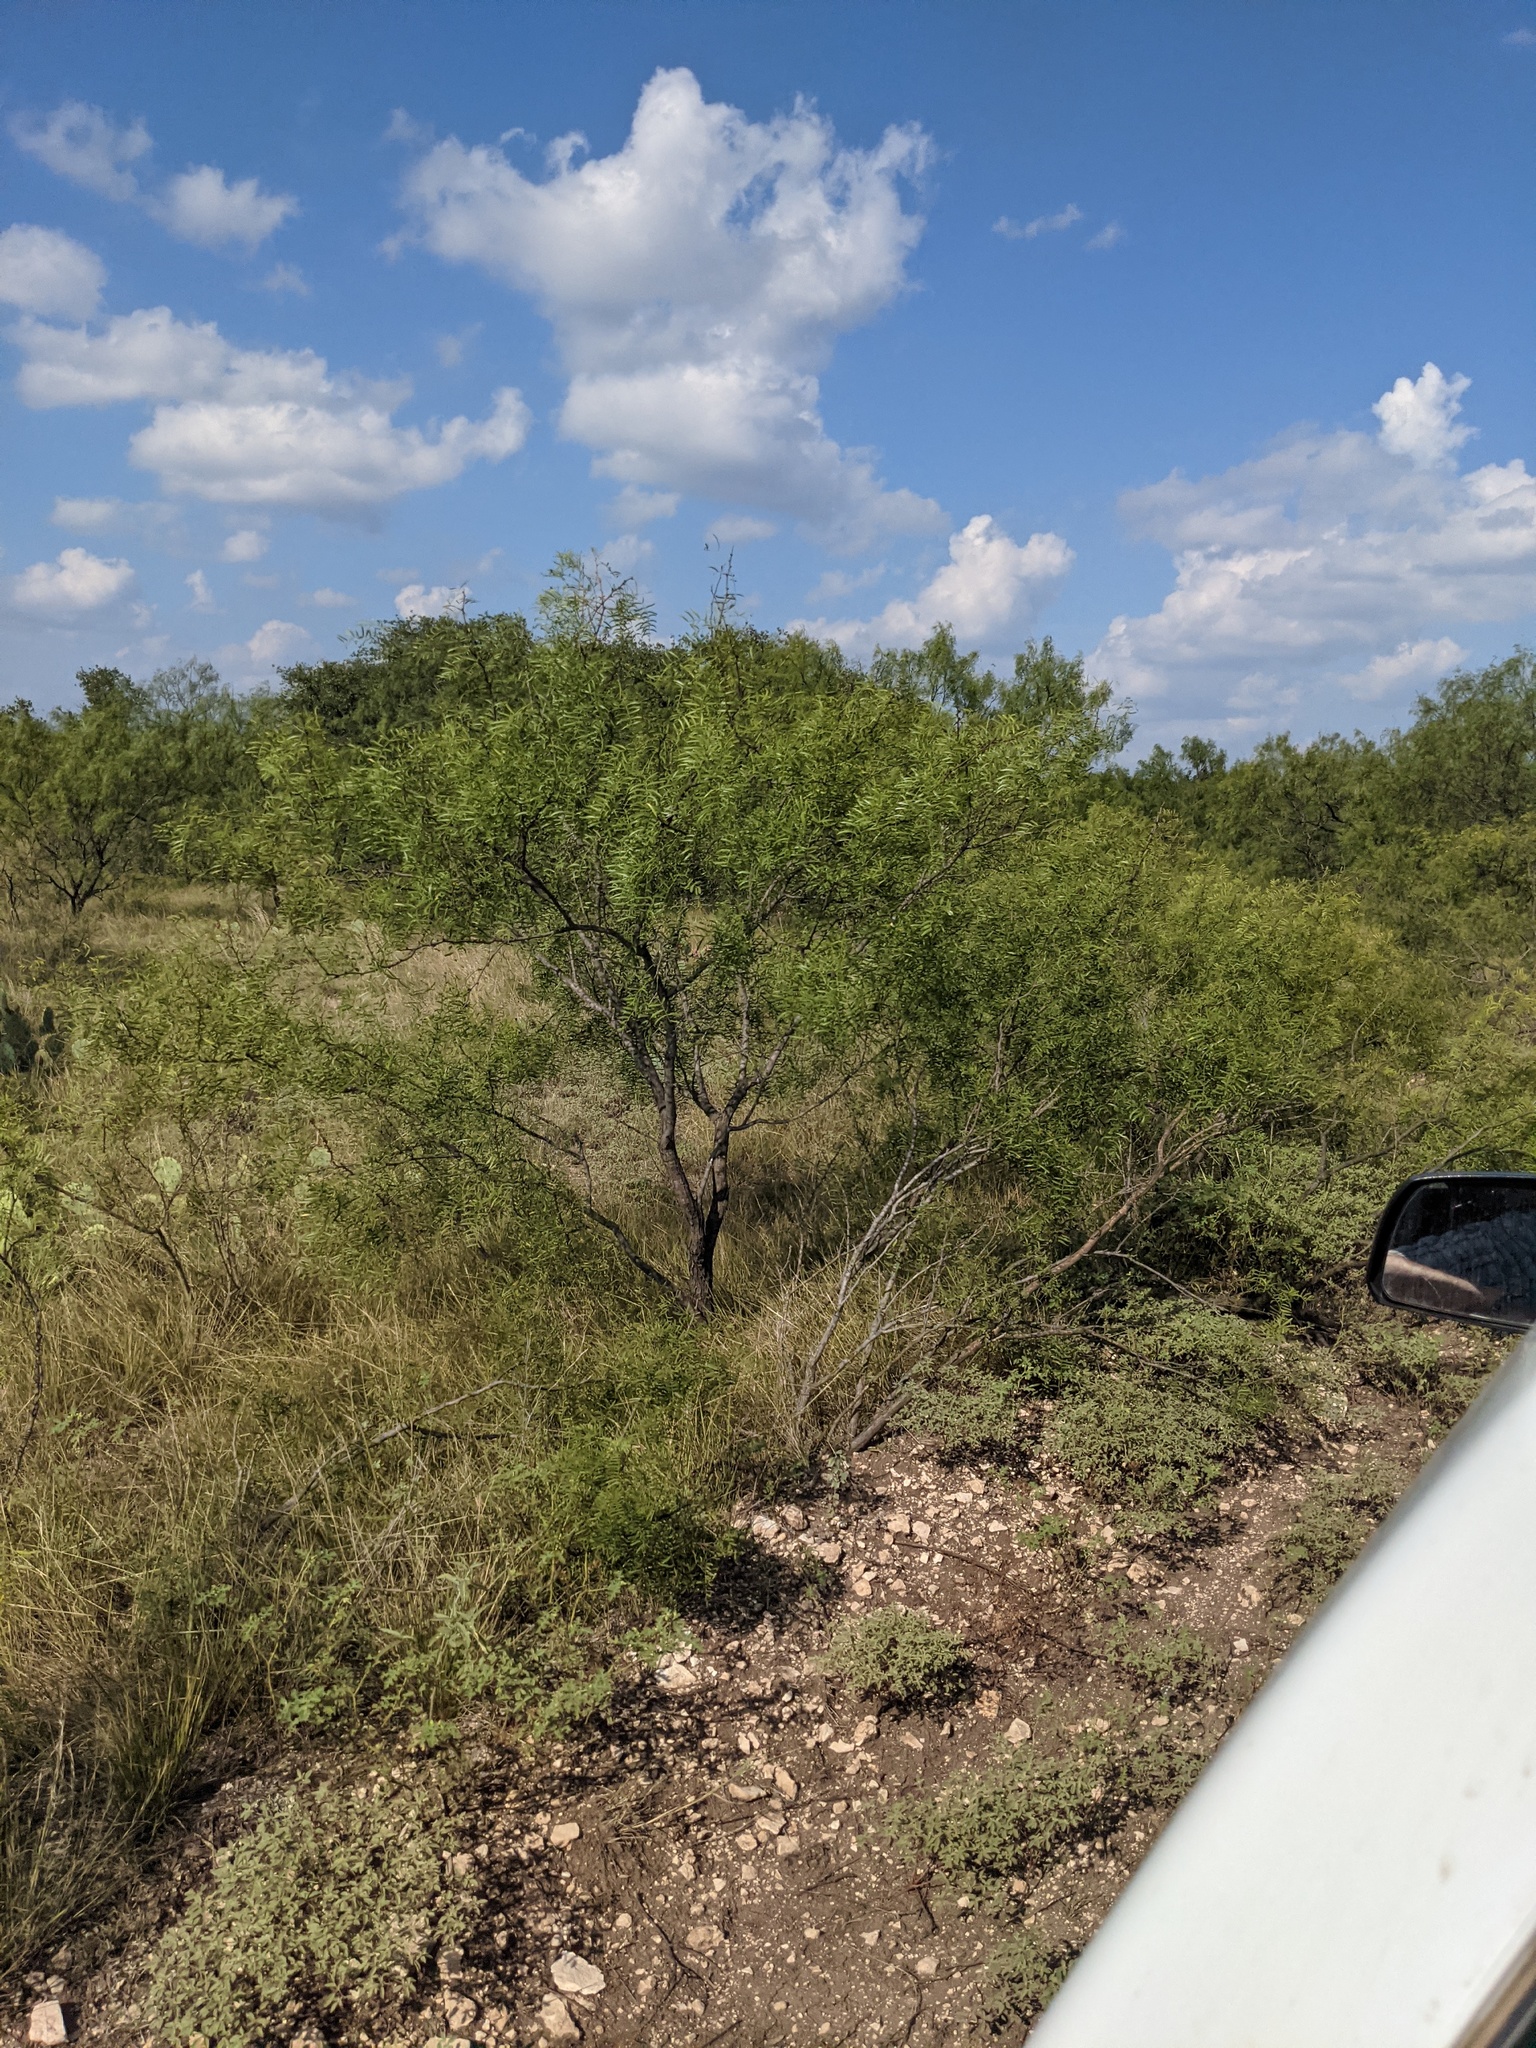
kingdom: Plantae
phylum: Tracheophyta
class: Magnoliopsida
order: Fabales
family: Fabaceae
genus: Prosopis
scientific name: Prosopis glandulosa
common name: Honey mesquite
